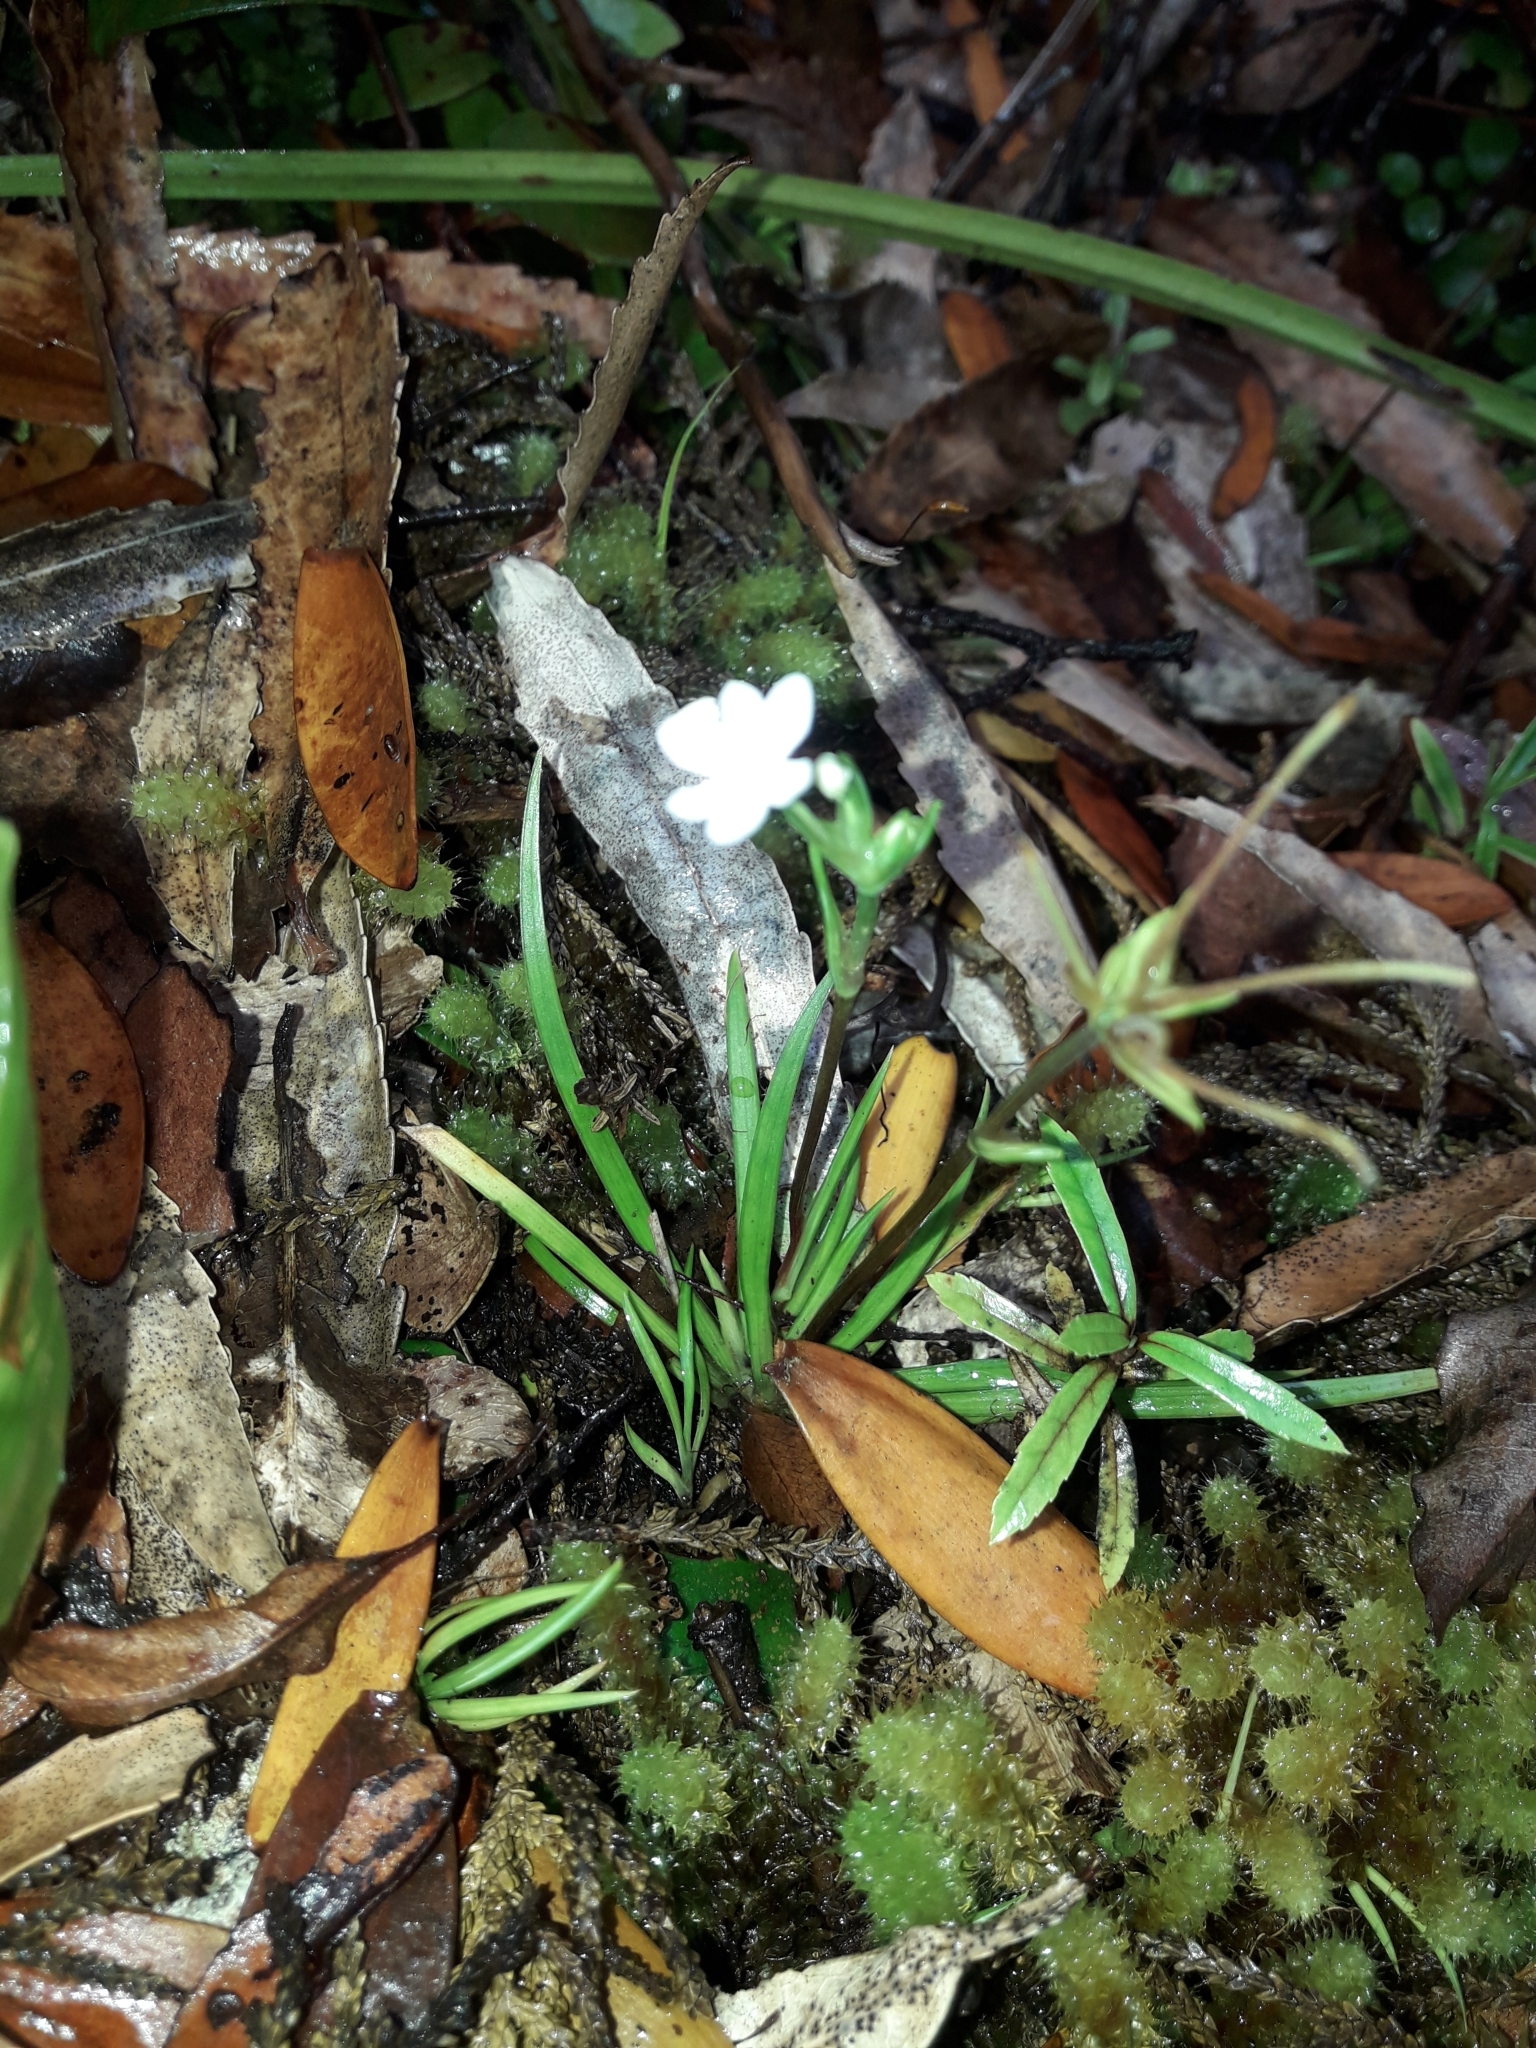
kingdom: Plantae
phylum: Tracheophyta
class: Liliopsida
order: Asparagales
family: Iridaceae
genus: Libertia
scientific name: Libertia micrantha
